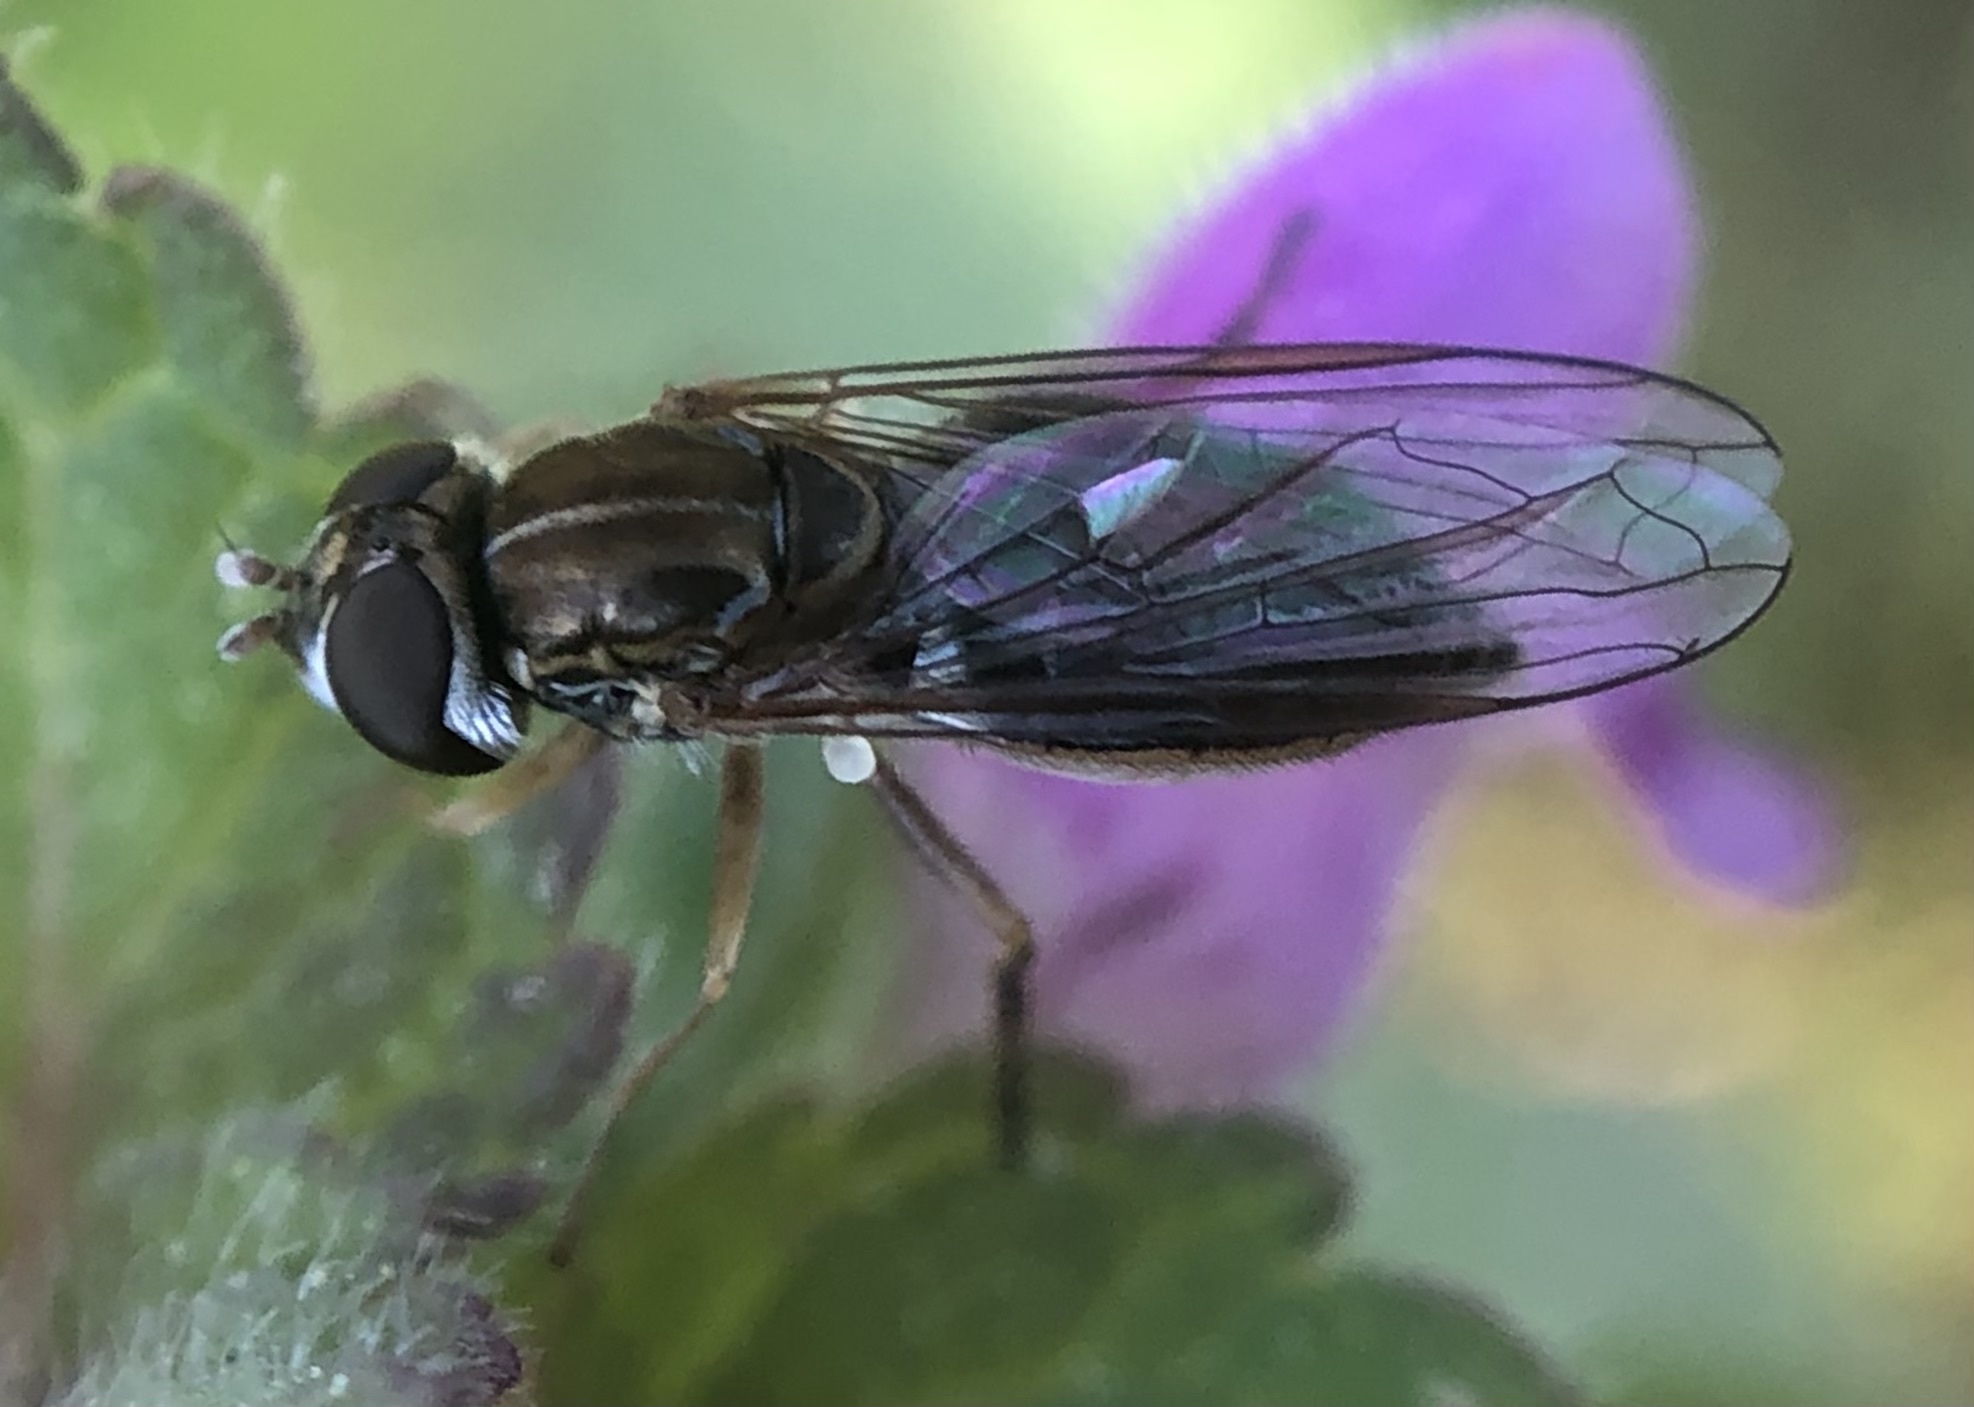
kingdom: Animalia
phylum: Arthropoda
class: Insecta
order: Diptera
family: Syrphidae
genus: Toxomerus
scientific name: Toxomerus marginatus
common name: Syrphid fly
